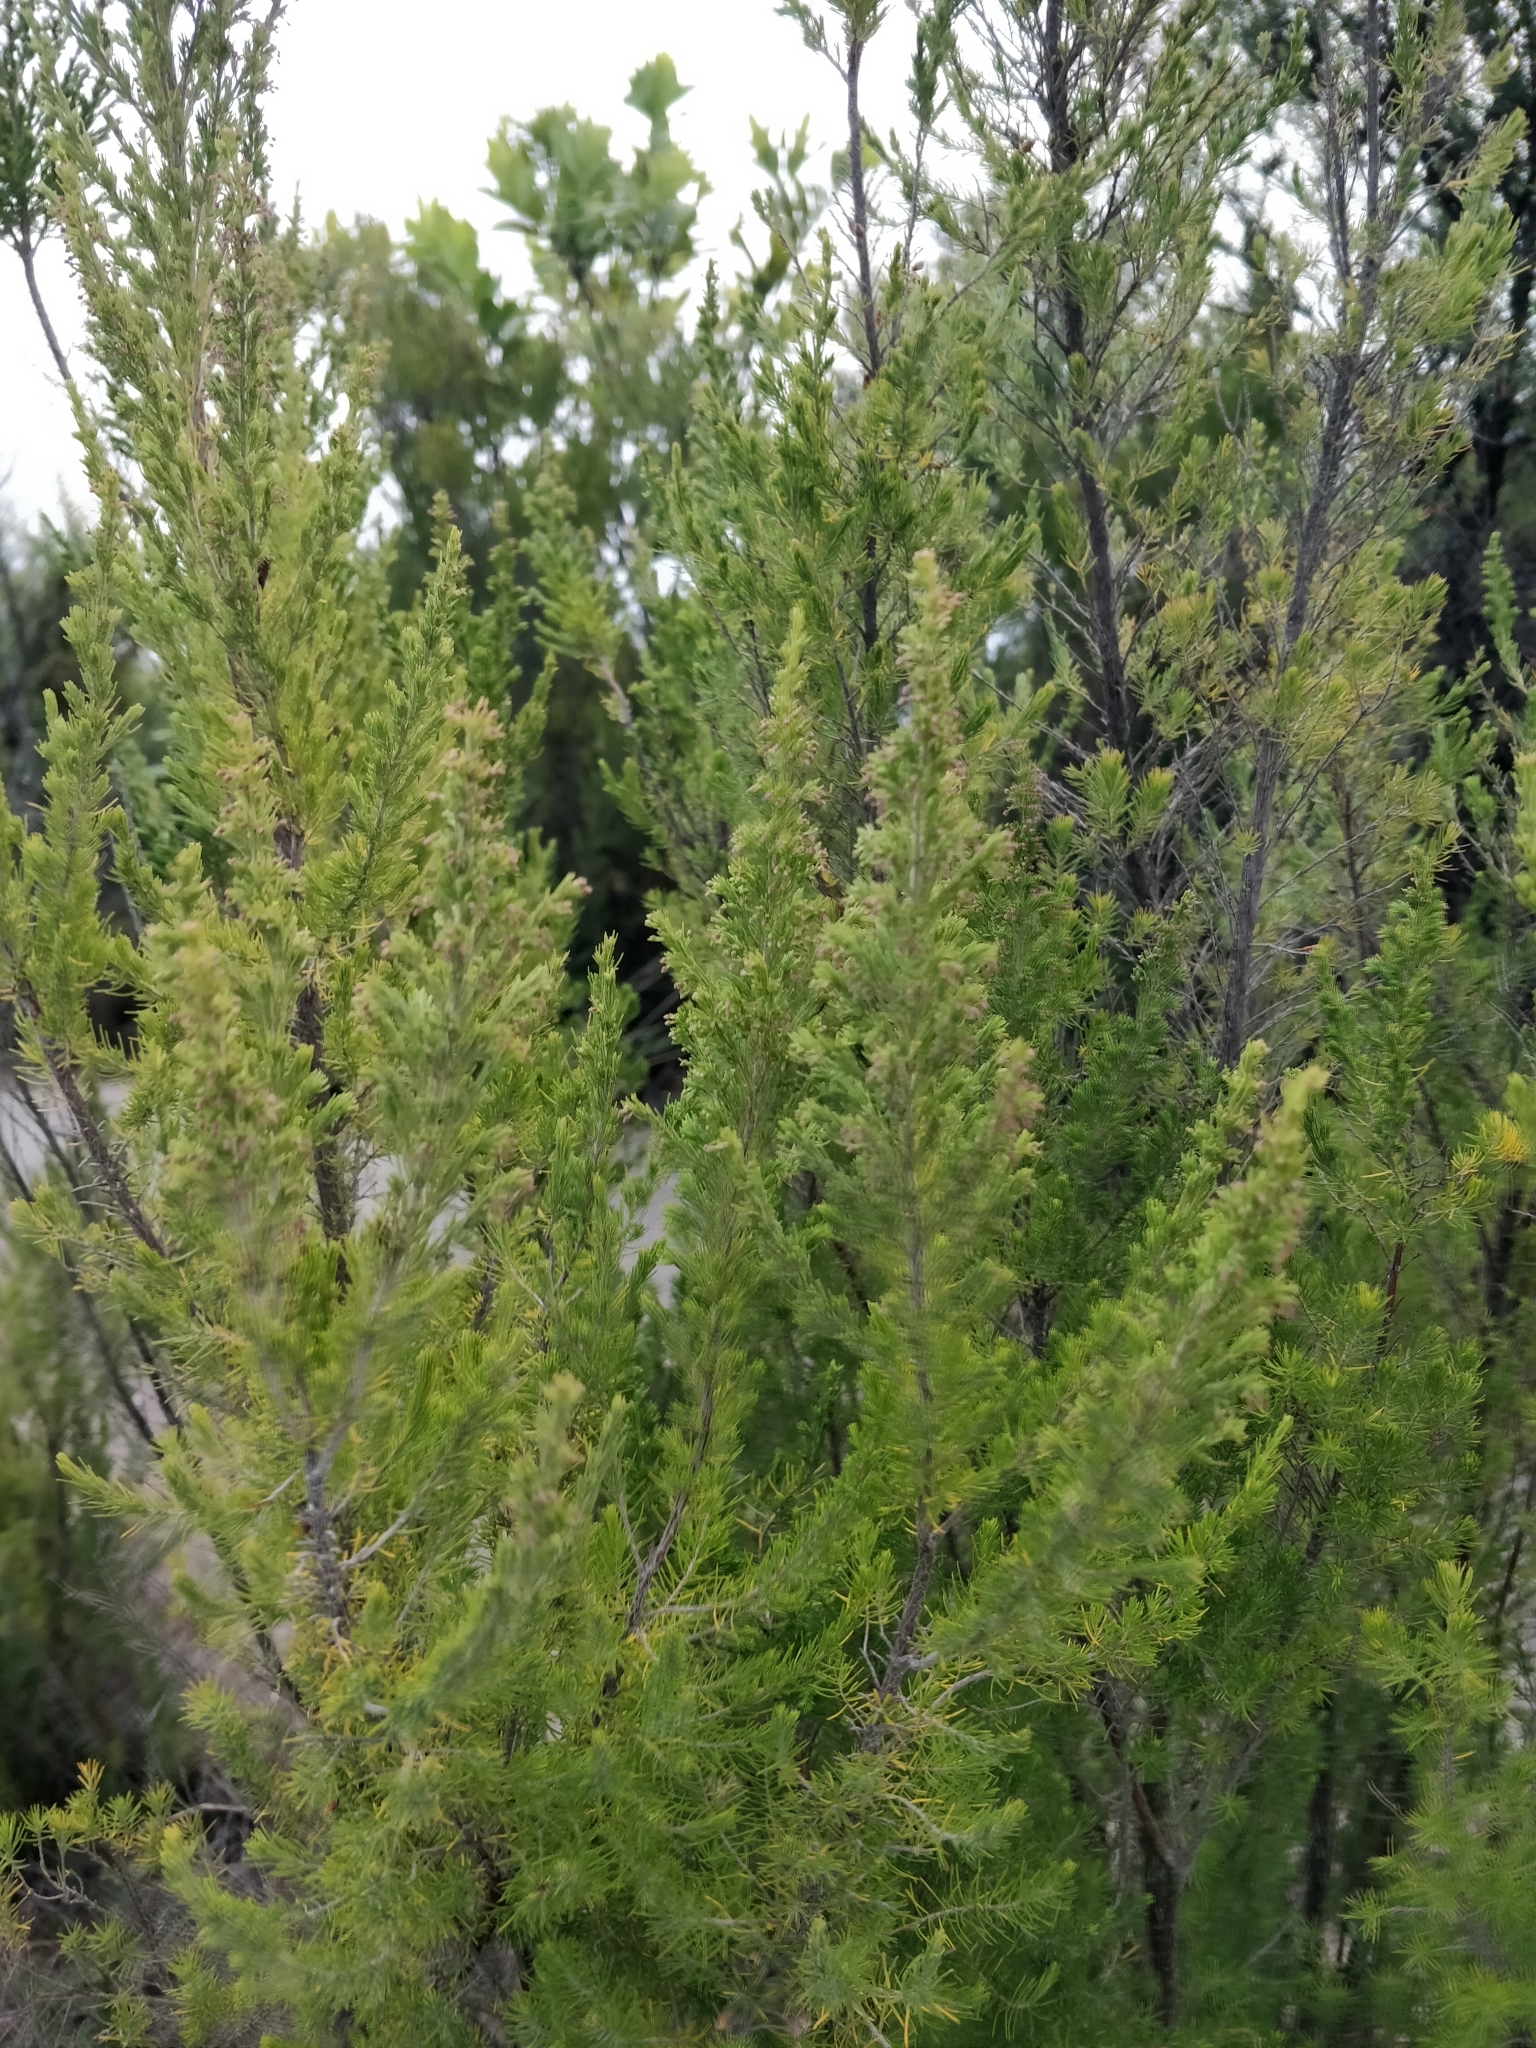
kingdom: Plantae
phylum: Tracheophyta
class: Magnoliopsida
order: Ericales
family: Ericaceae
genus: Erica
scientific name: Erica lusitanica
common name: Spanish heath
